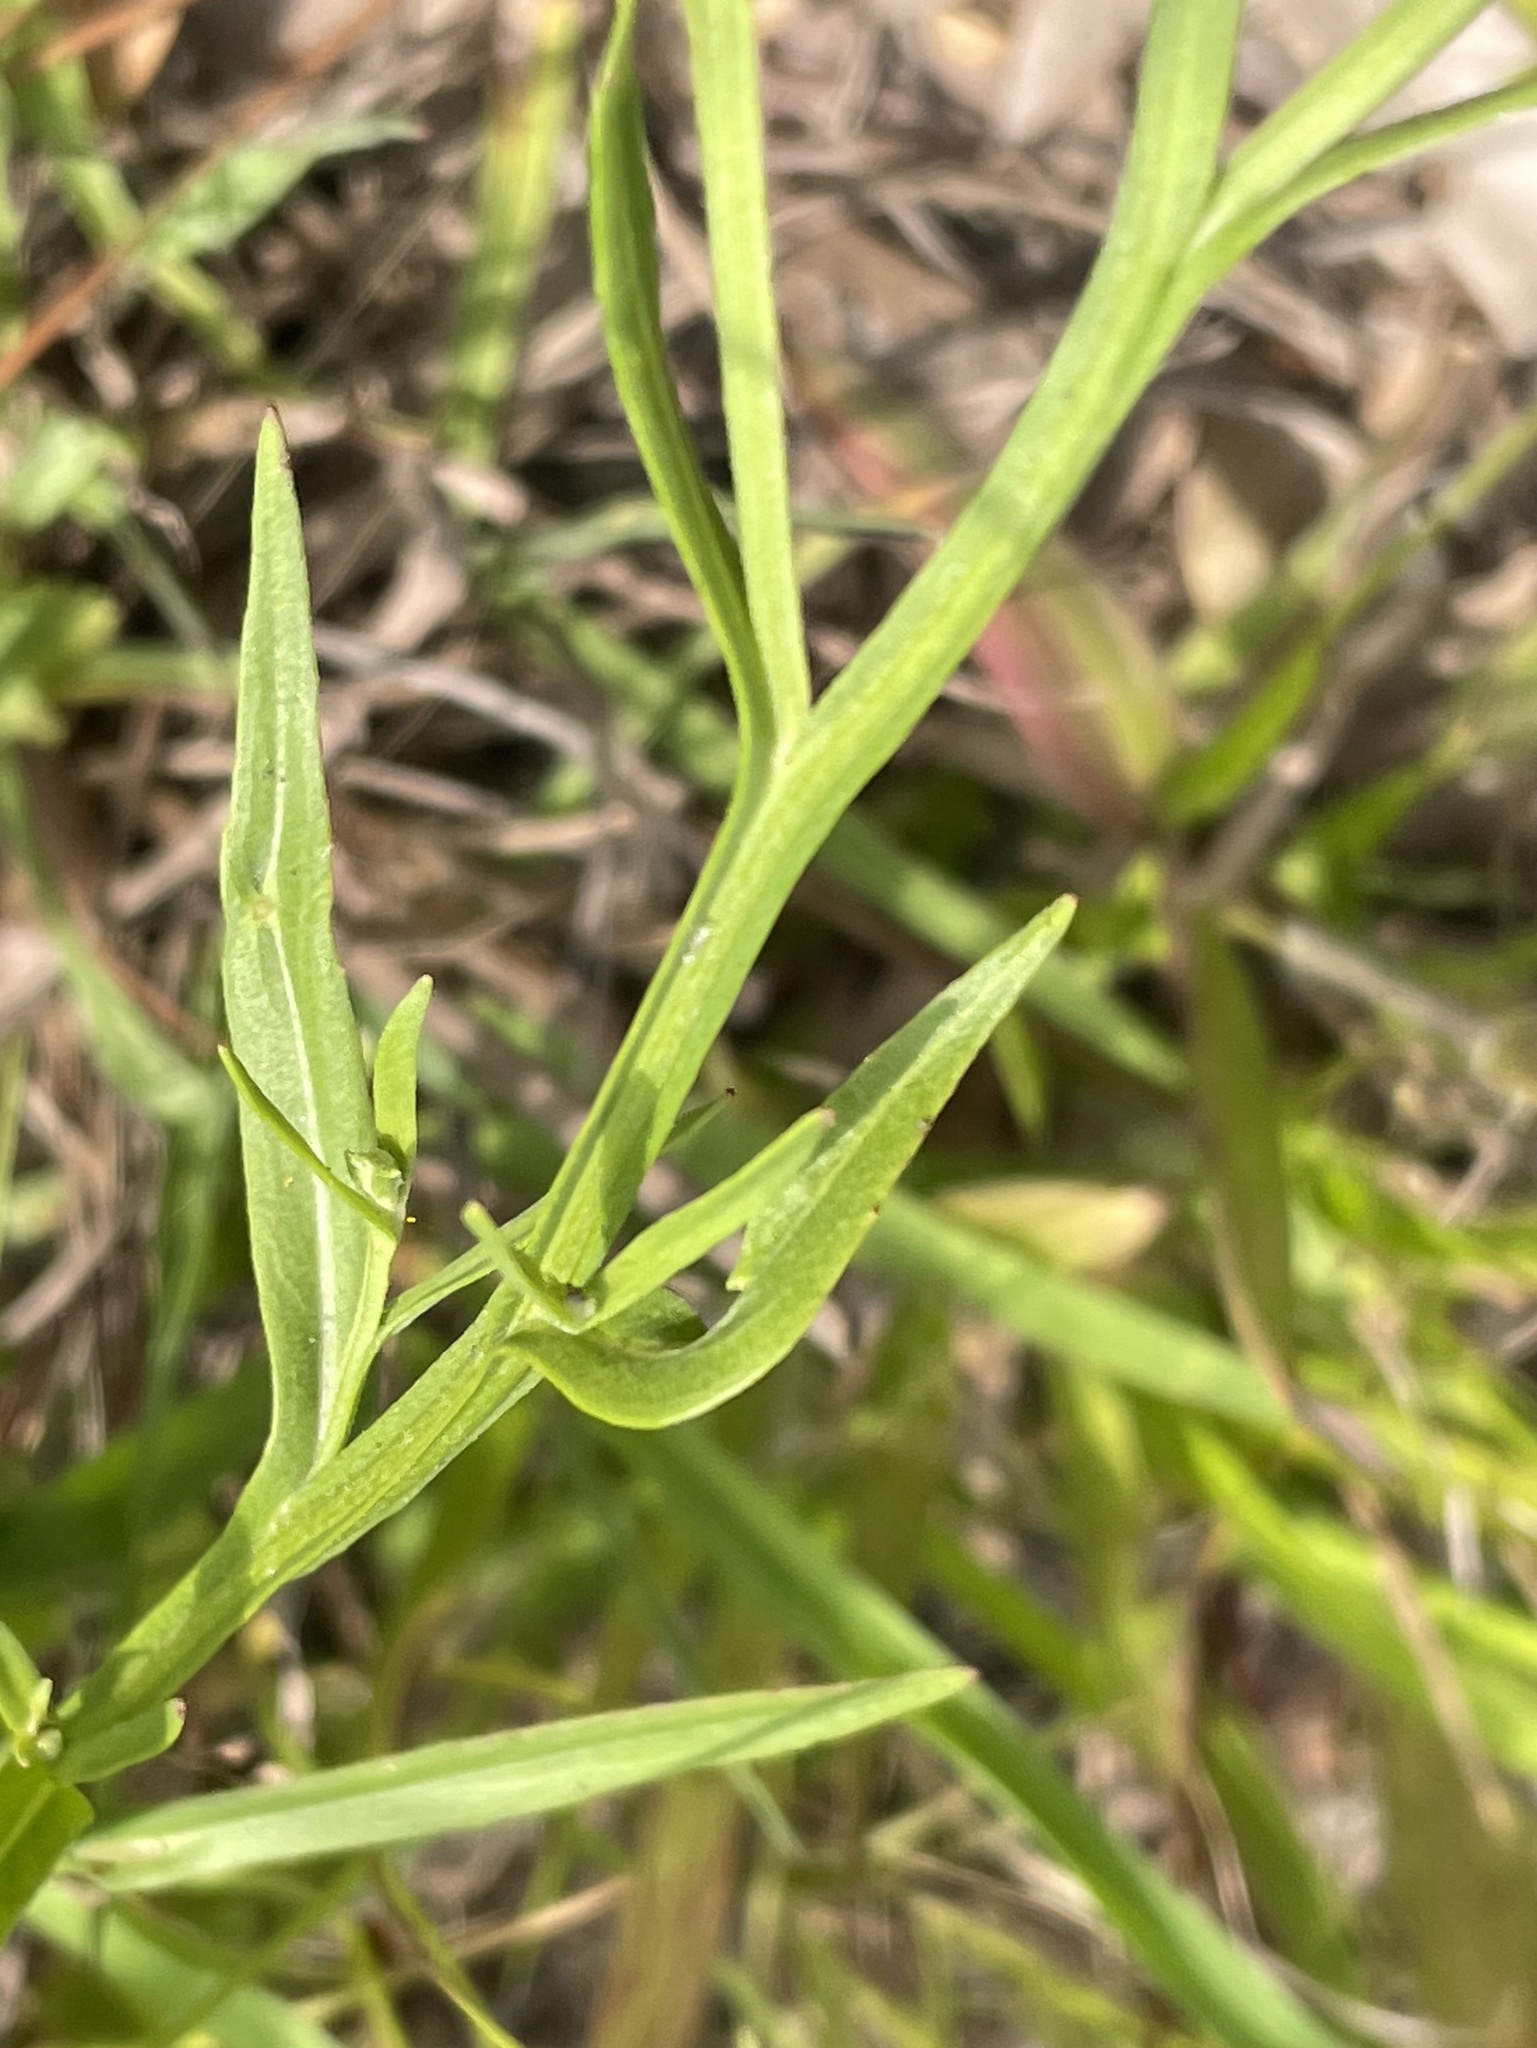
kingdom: Plantae
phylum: Tracheophyta
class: Magnoliopsida
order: Asterales
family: Asteraceae
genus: Helenium
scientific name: Helenium flexuosum
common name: Naked-flowered sneezeweed
